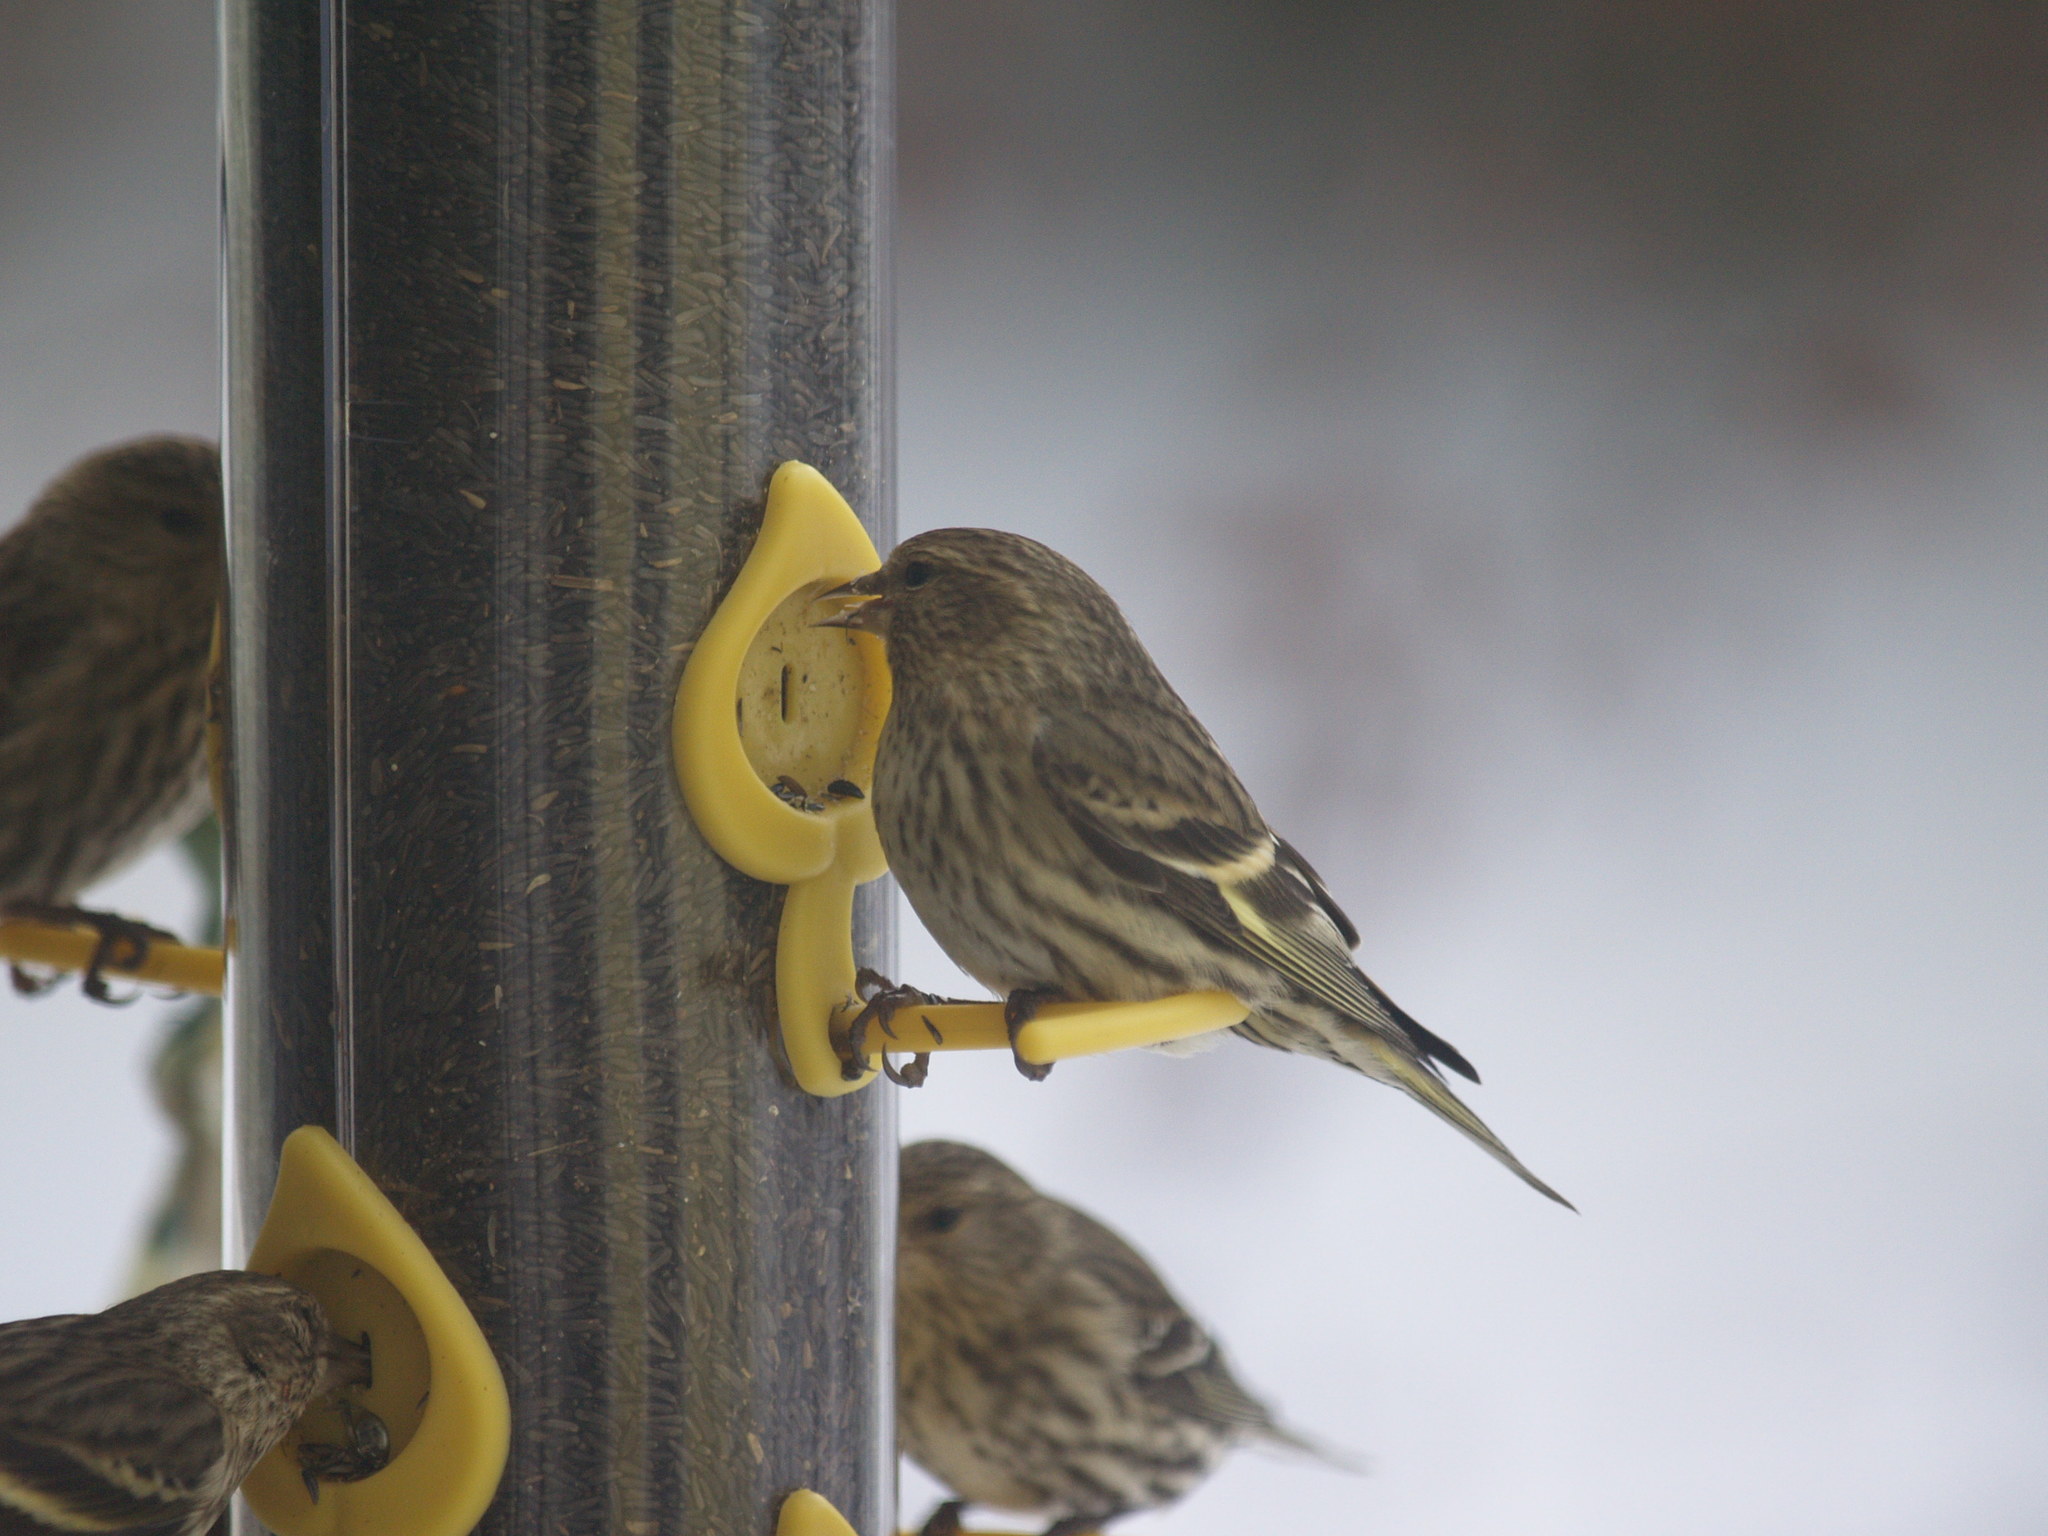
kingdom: Animalia
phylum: Chordata
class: Aves
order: Passeriformes
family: Fringillidae
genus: Spinus
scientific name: Spinus pinus
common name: Pine siskin
